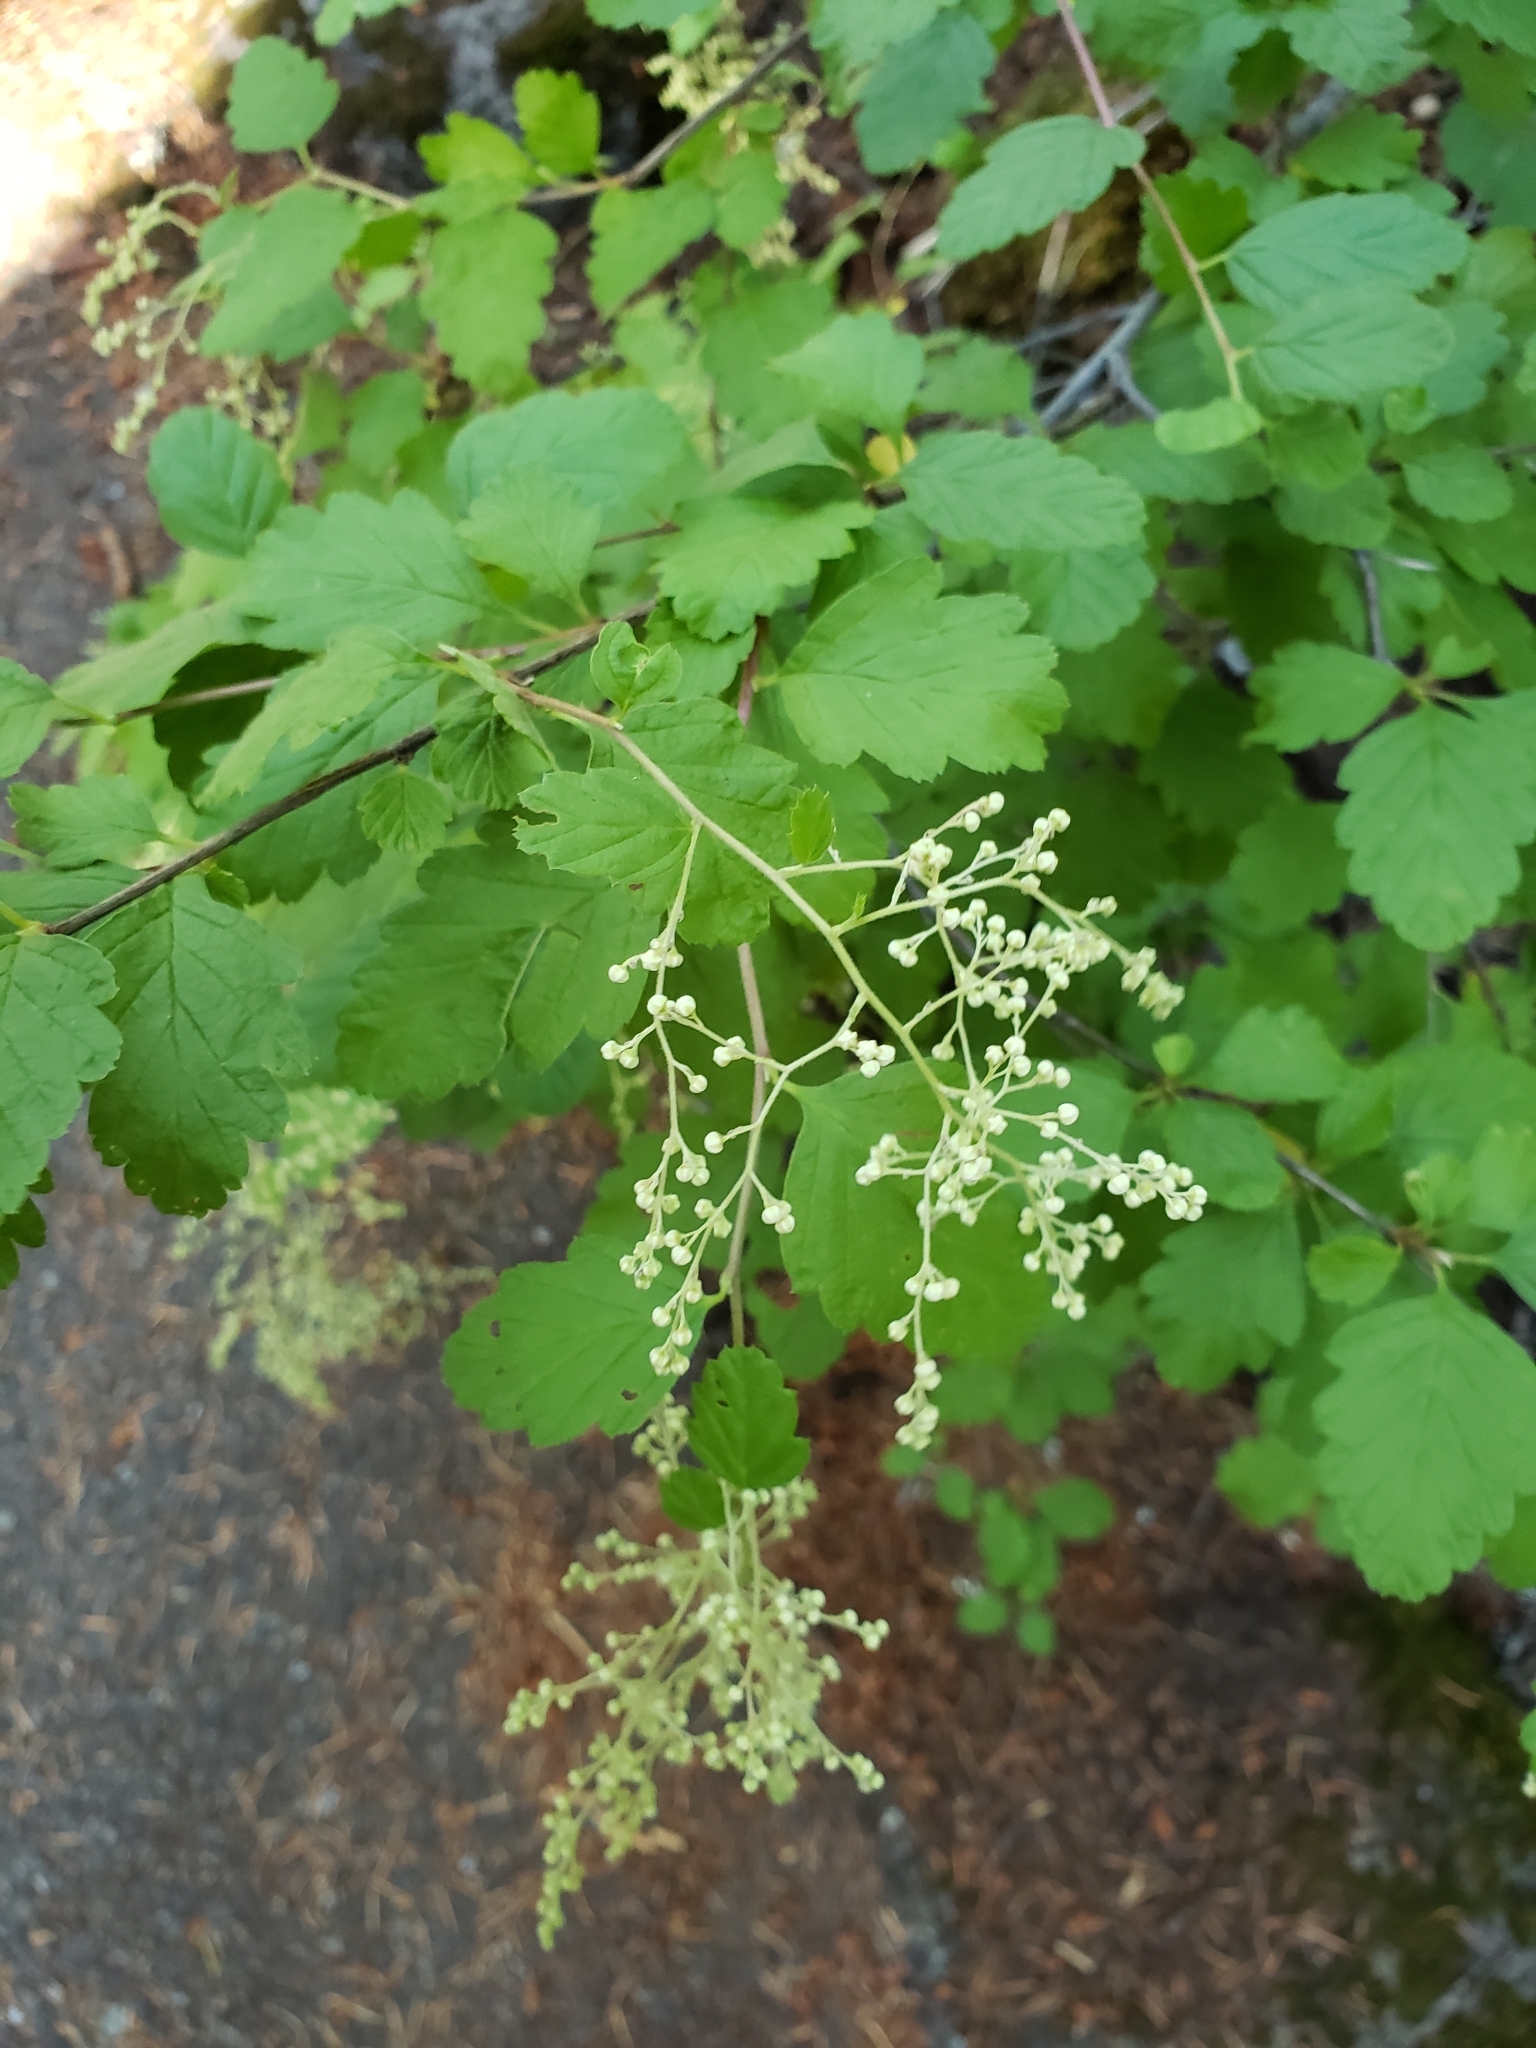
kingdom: Plantae
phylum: Tracheophyta
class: Magnoliopsida
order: Rosales
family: Rosaceae
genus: Holodiscus
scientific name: Holodiscus discolor
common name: Oceanspray
